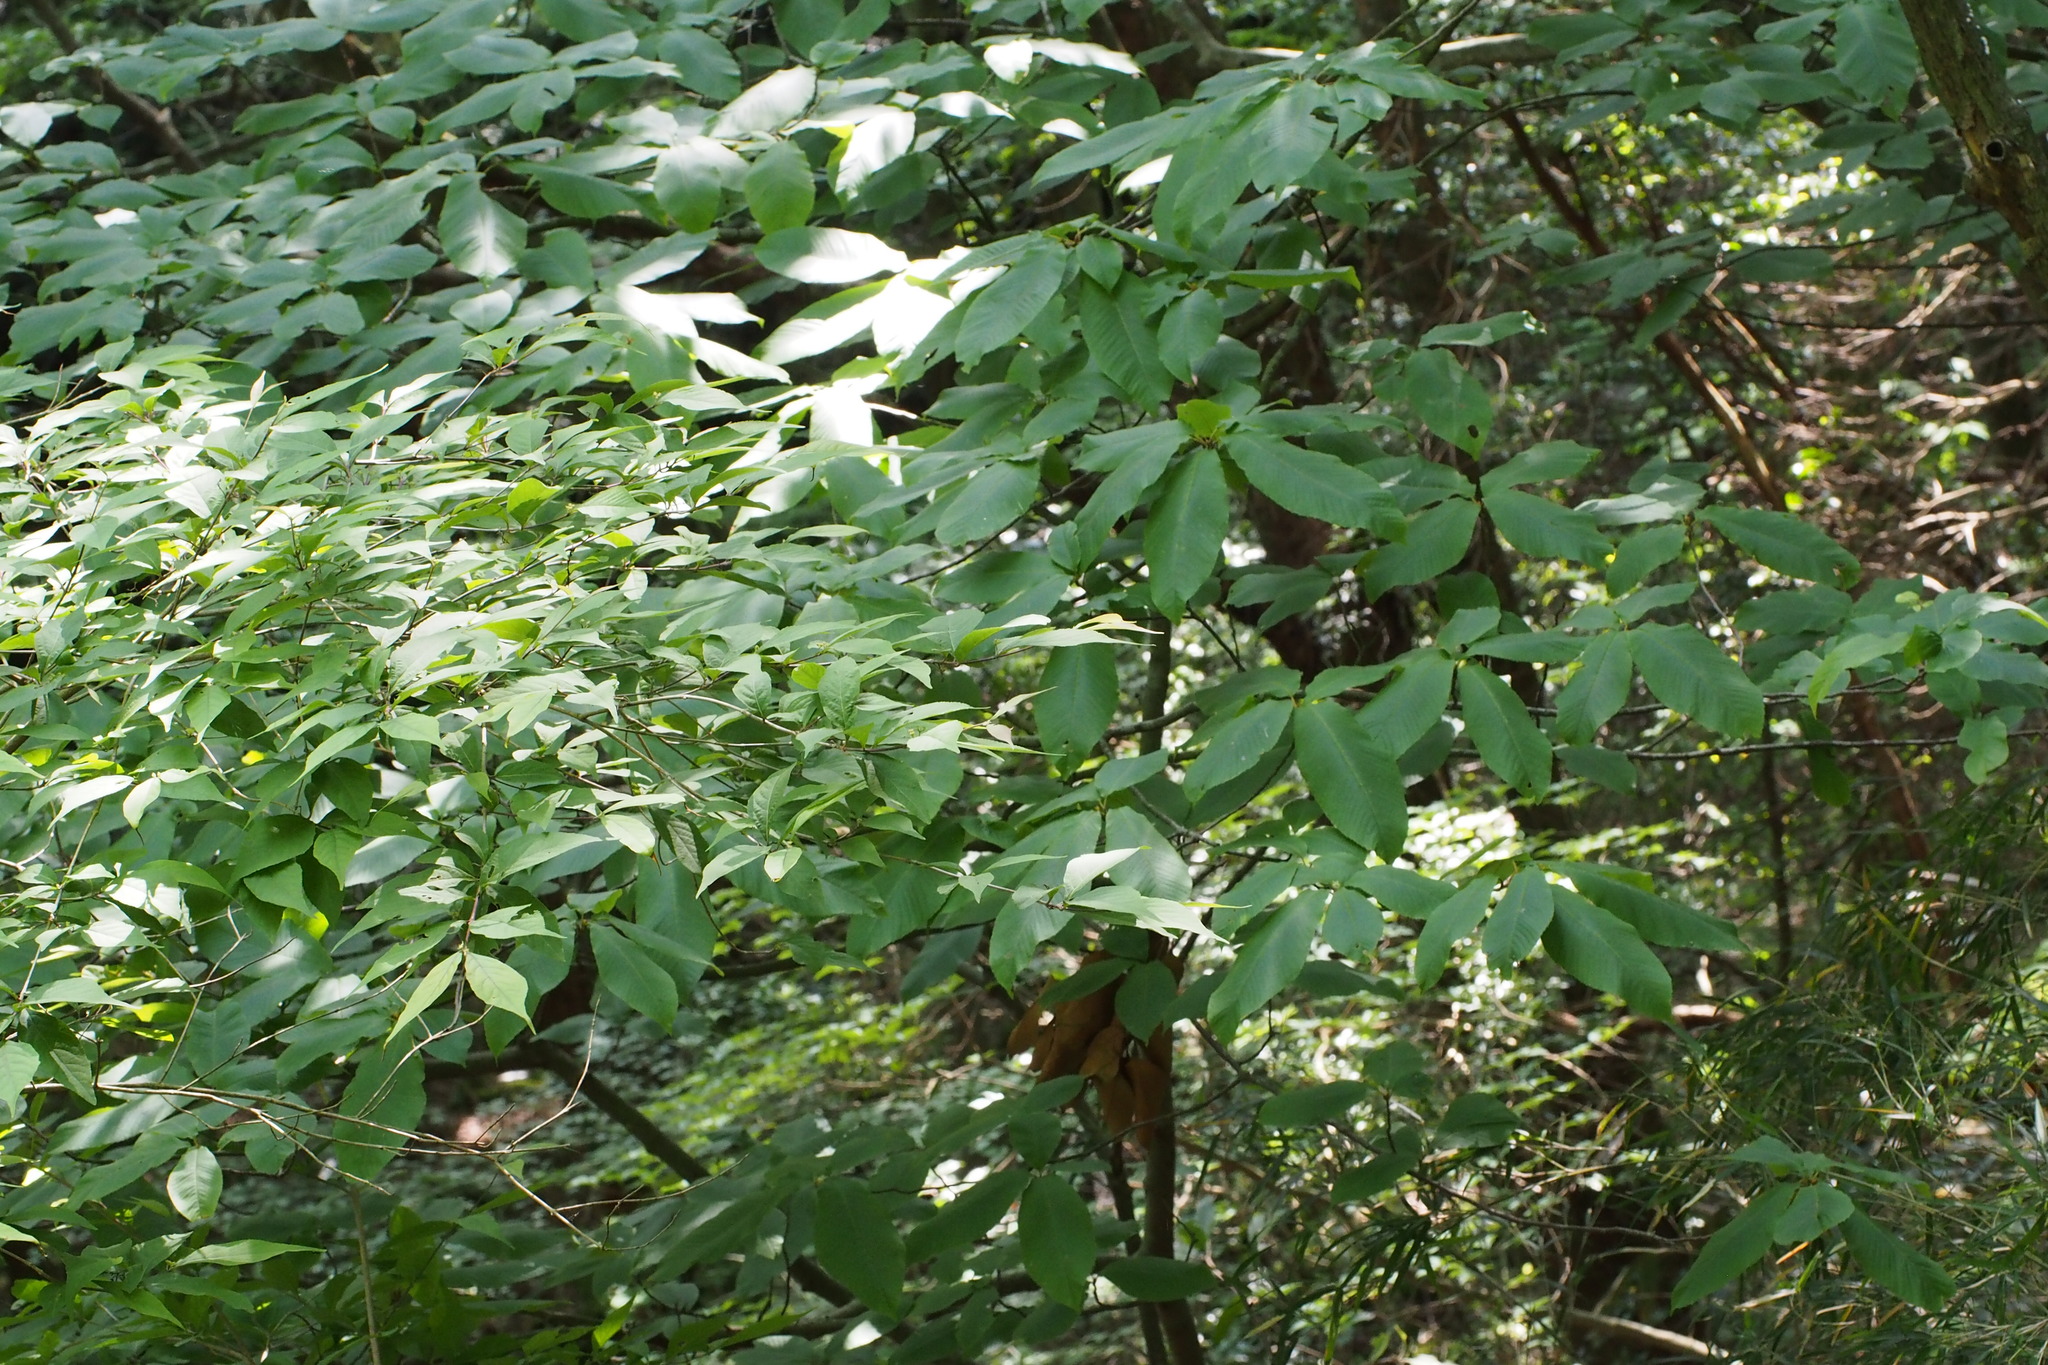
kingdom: Plantae
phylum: Tracheophyta
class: Magnoliopsida
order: Proteales
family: Sabiaceae
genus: Meliosma
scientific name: Meliosma myriantha
